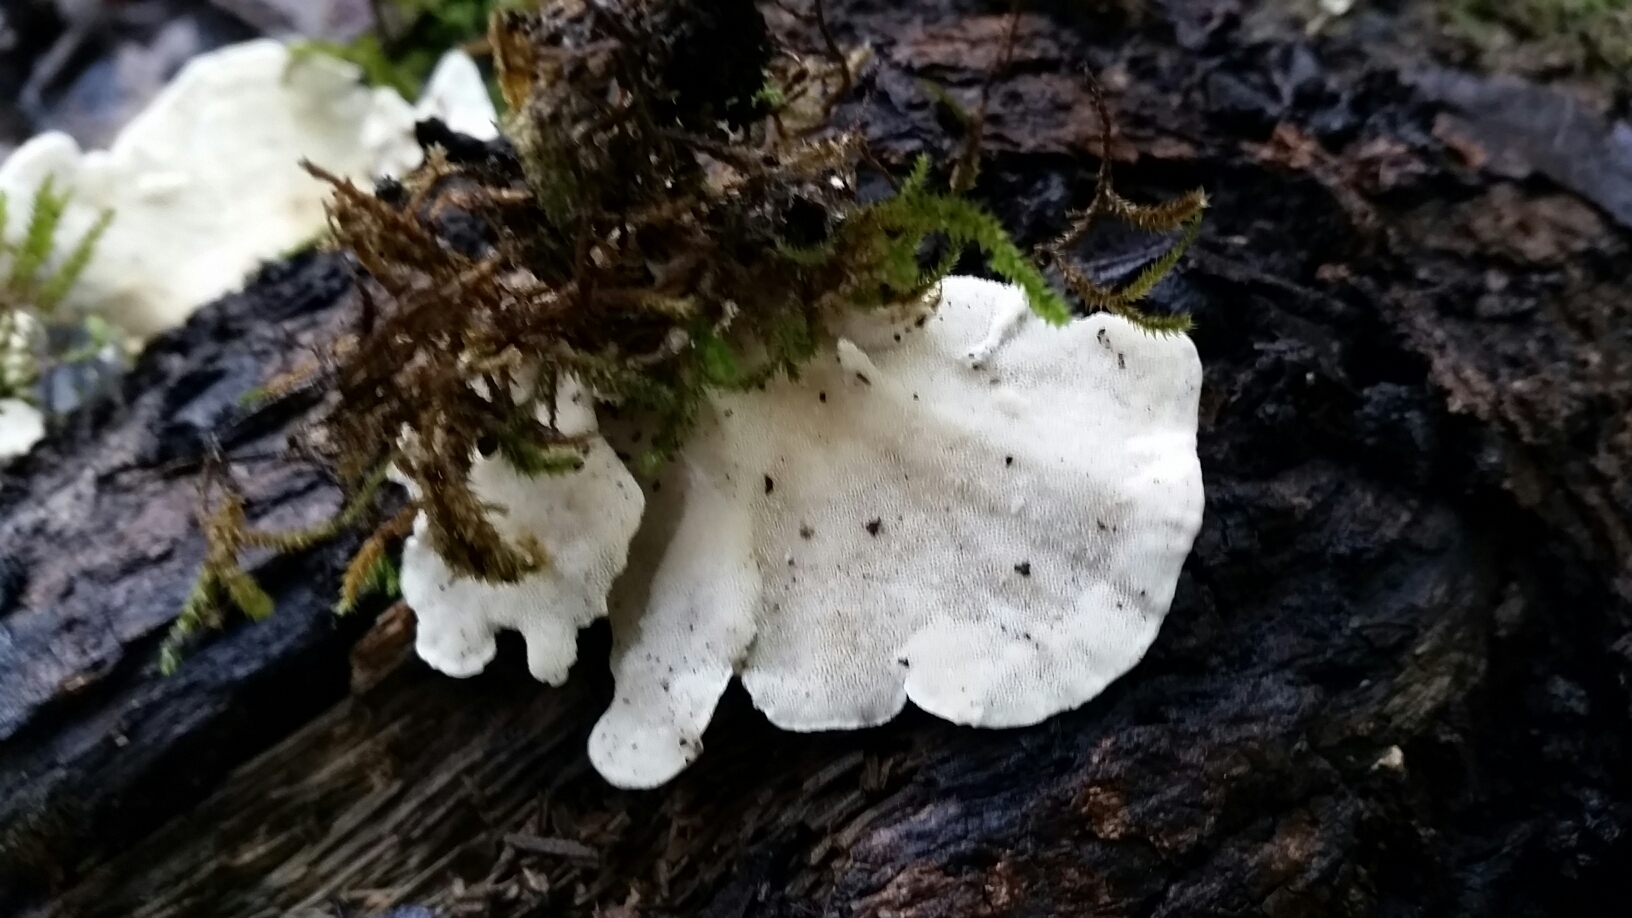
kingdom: Fungi
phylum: Basidiomycota
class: Agaricomycetes
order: Polyporales
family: Polyporaceae
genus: Trametes
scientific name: Trametes versicolor
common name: Turkeytail
